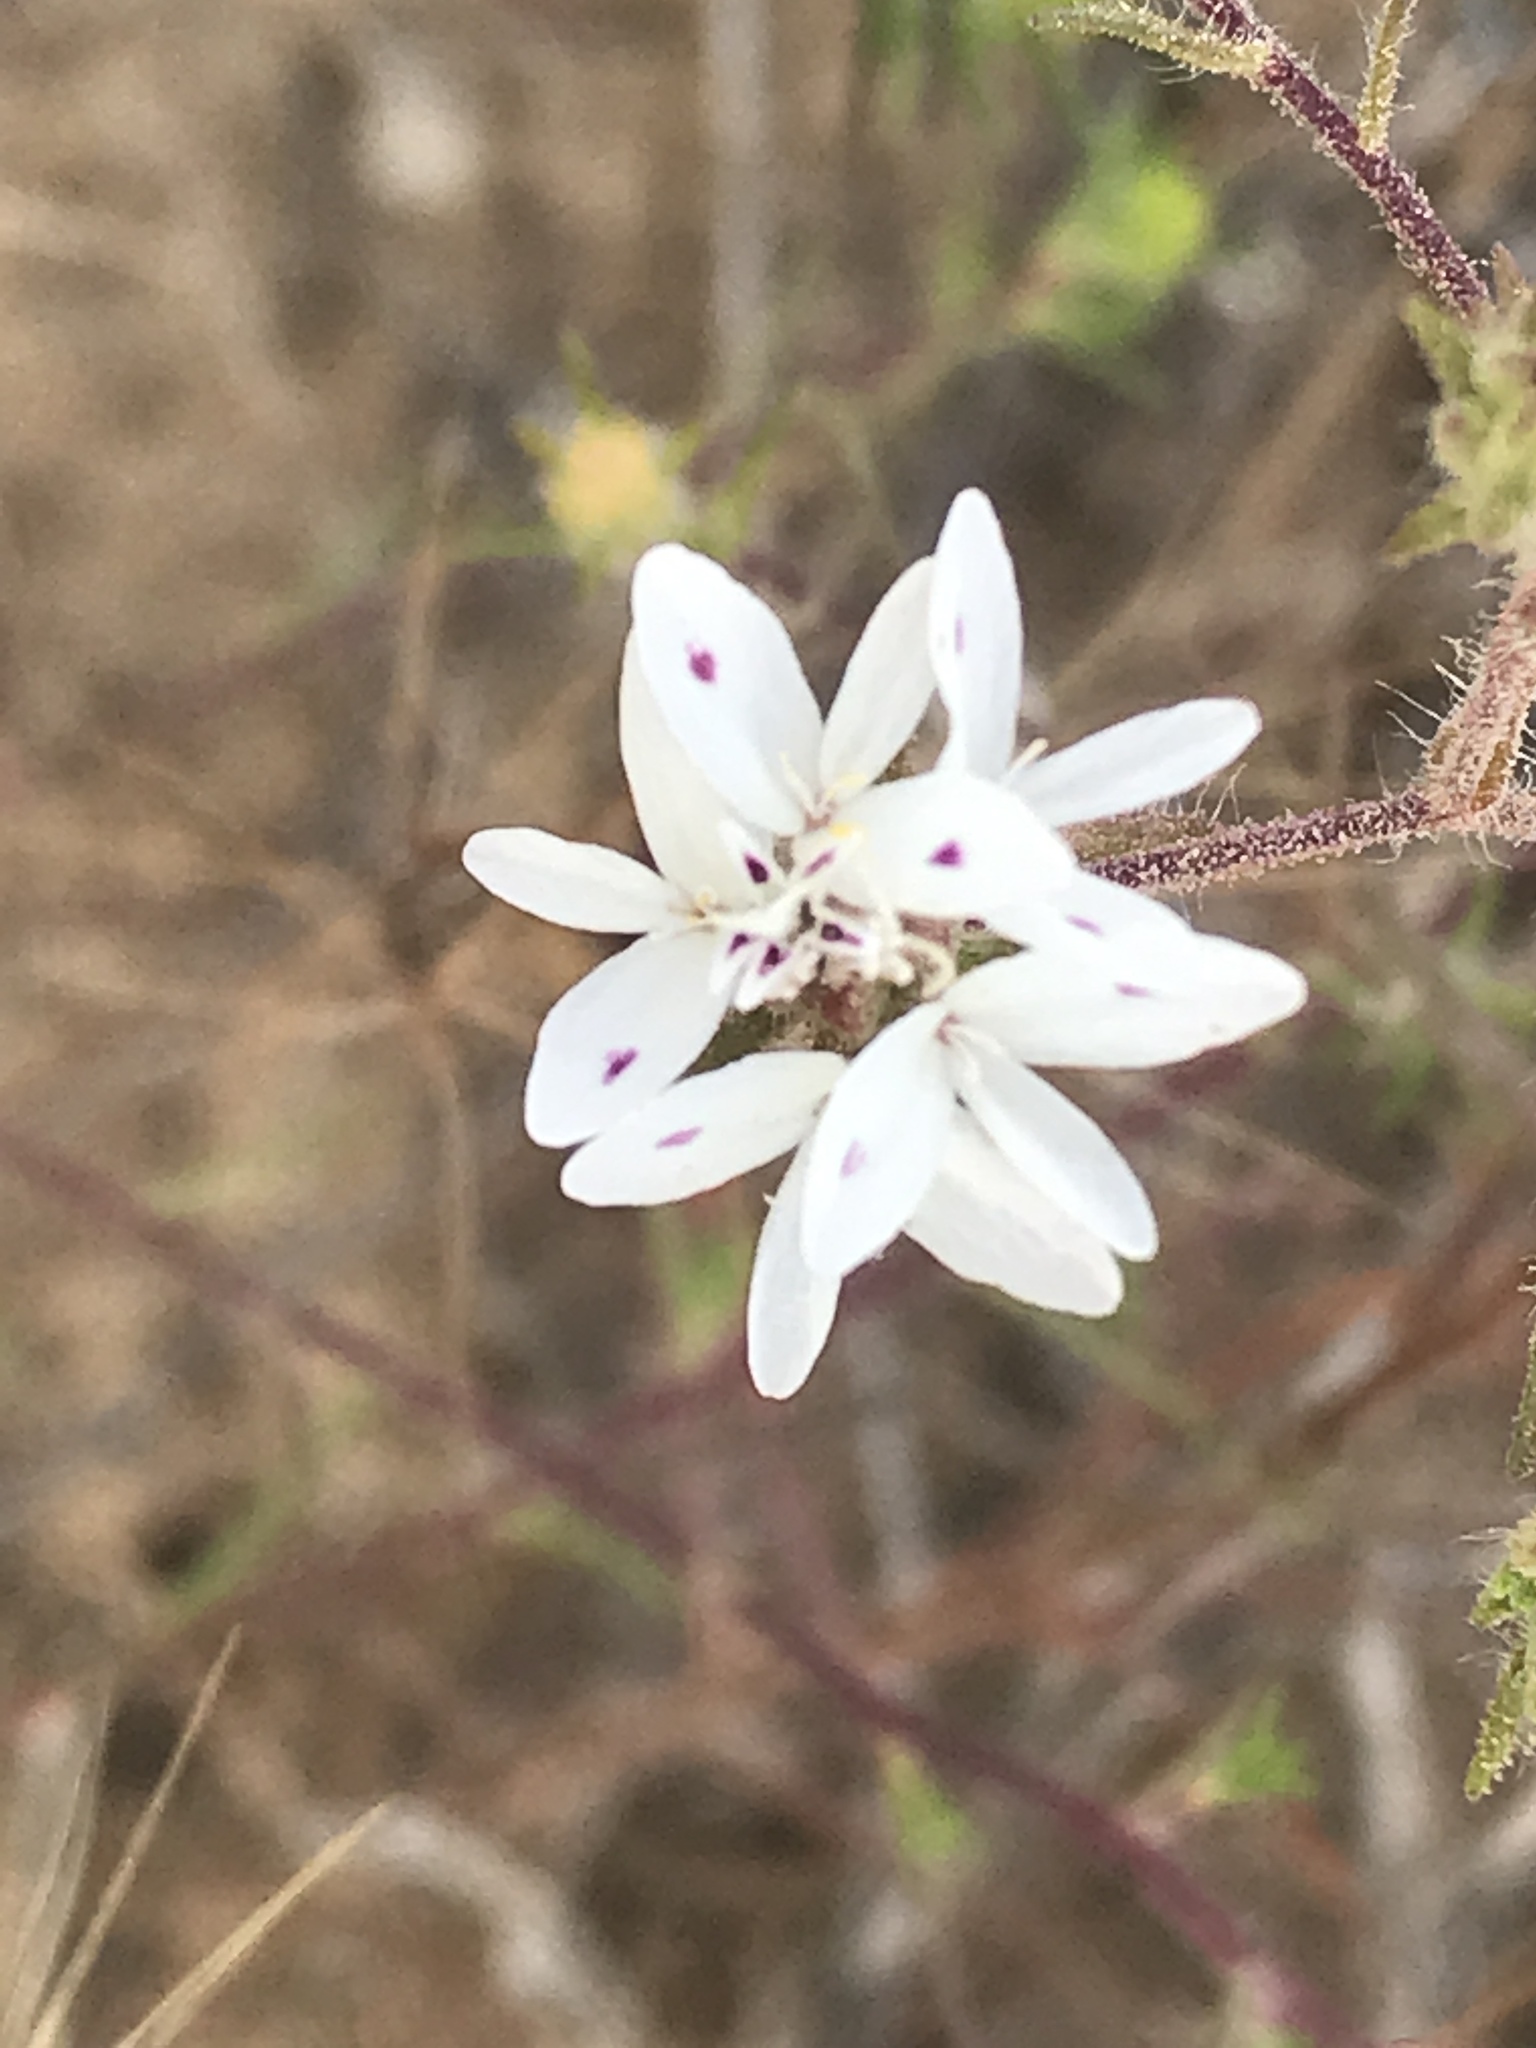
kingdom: Plantae
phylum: Tracheophyta
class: Magnoliopsida
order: Asterales
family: Asteraceae
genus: Osmadenia
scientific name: Osmadenia tenella
